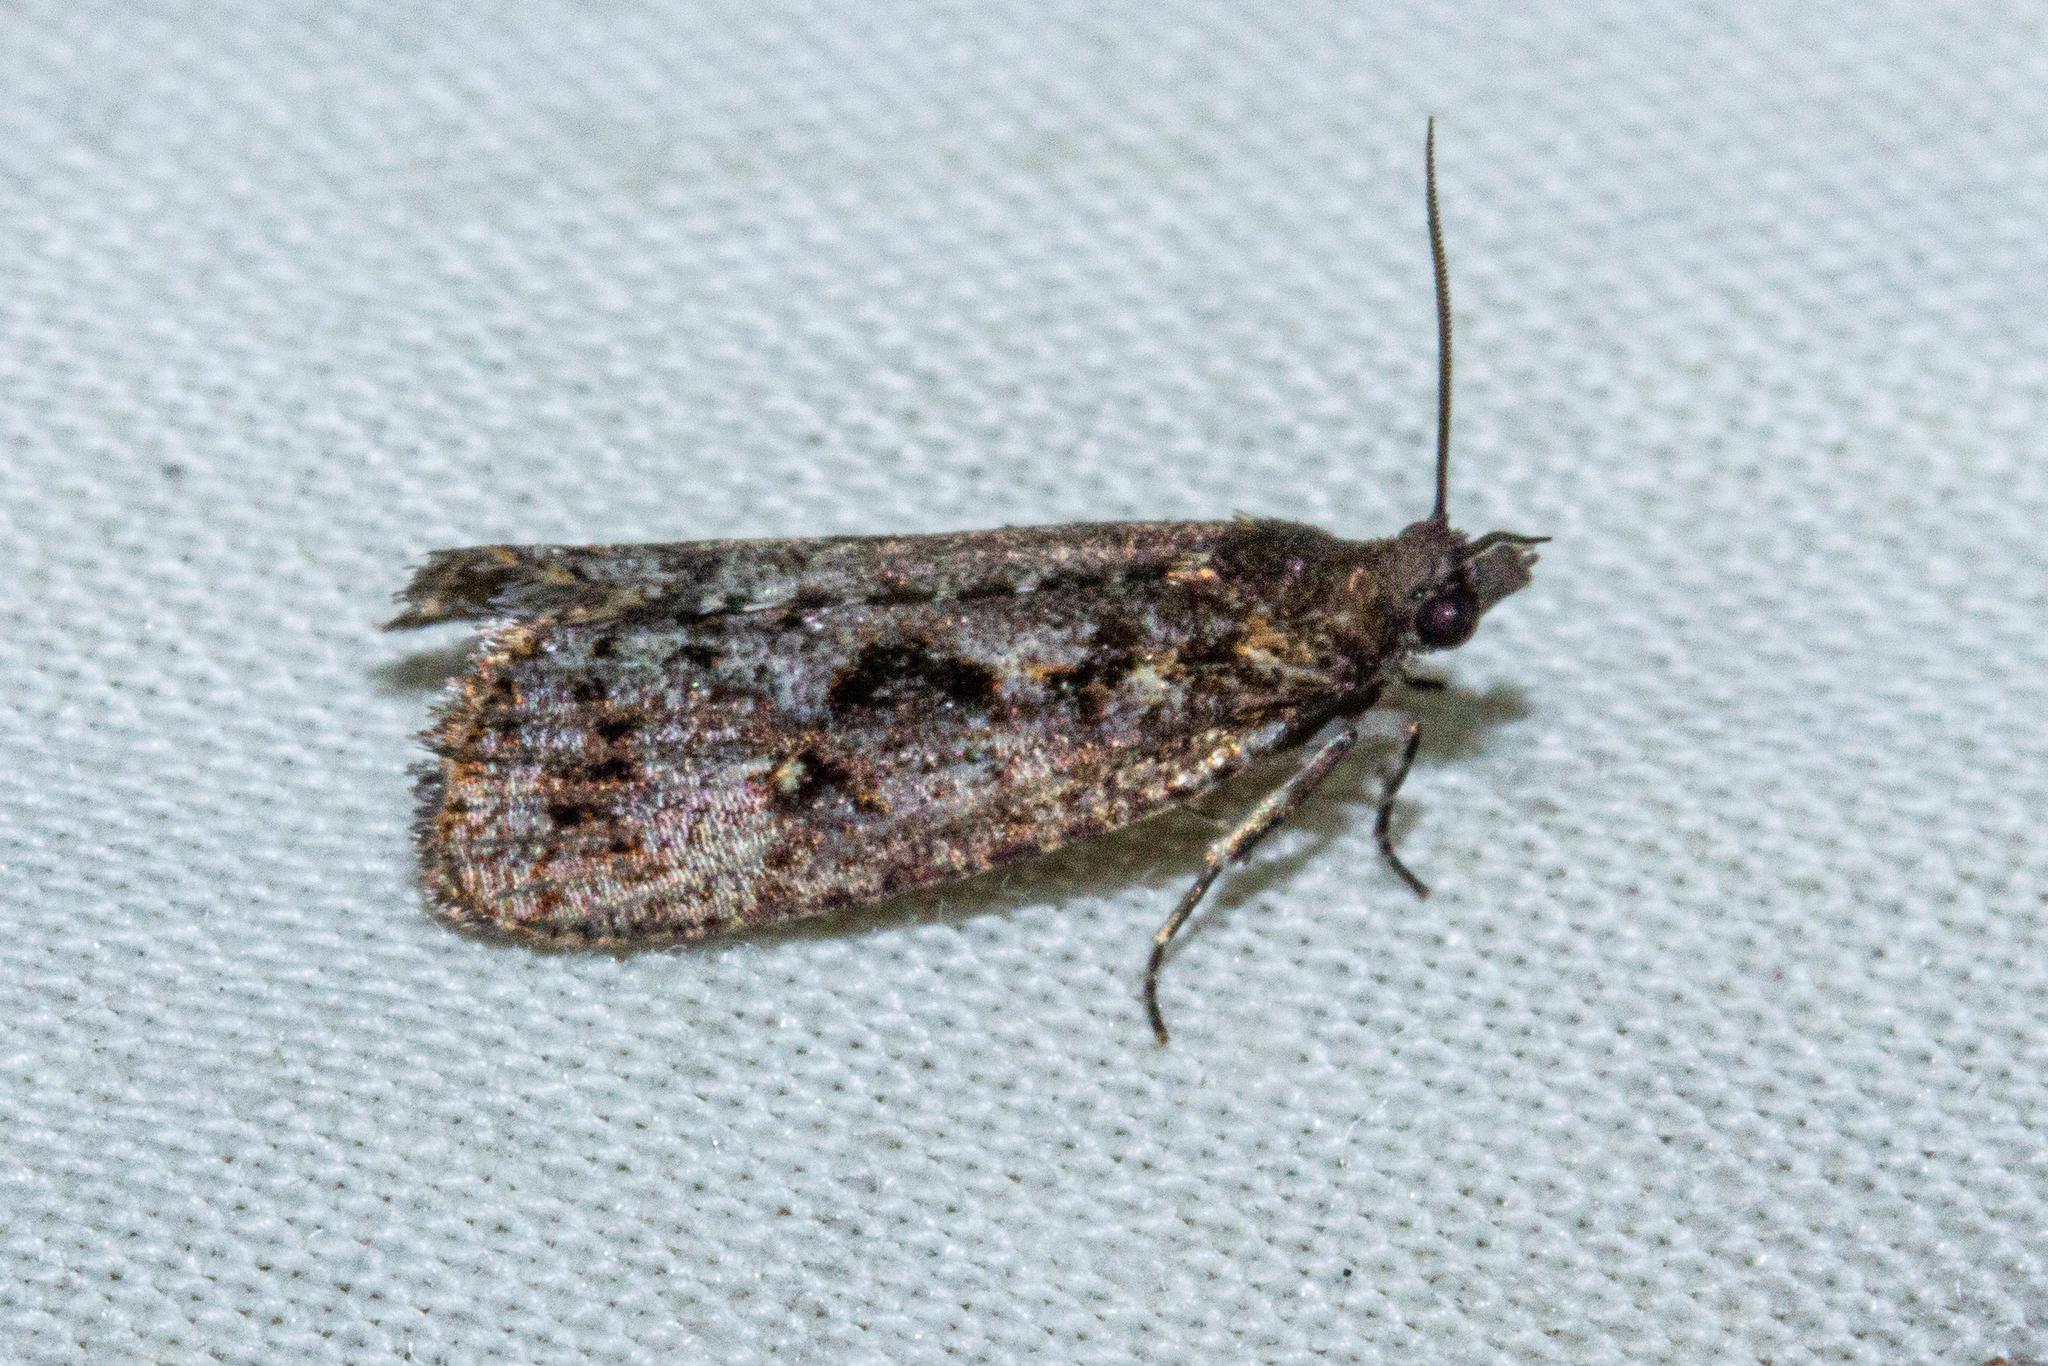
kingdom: Animalia
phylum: Arthropoda
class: Insecta
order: Lepidoptera
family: Tortricidae
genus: Cryptaspasma
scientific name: Cryptaspasma querula
